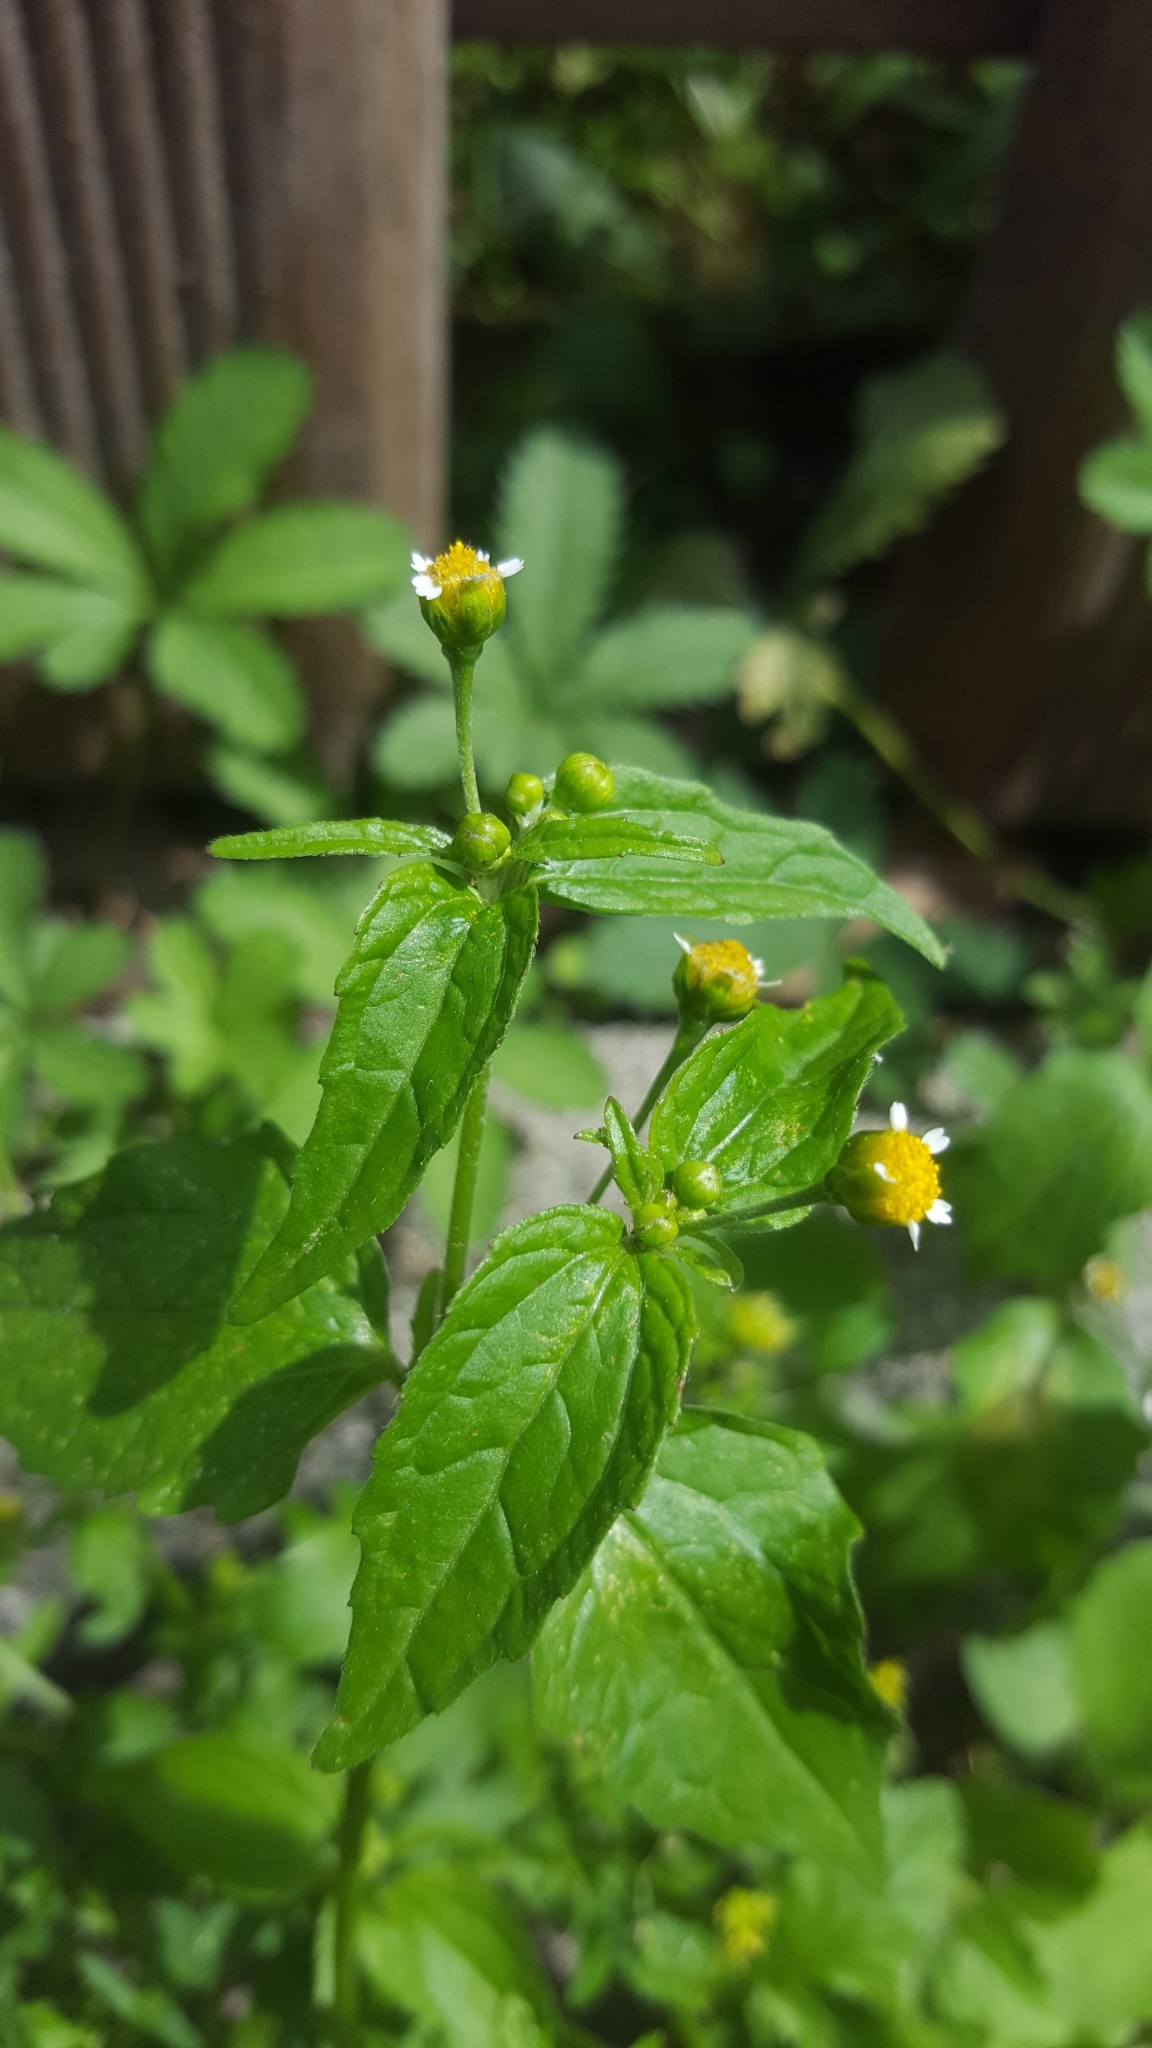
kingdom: Plantae
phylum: Tracheophyta
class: Magnoliopsida
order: Asterales
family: Asteraceae
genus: Galinsoga
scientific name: Galinsoga parviflora
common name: Gallant soldier
